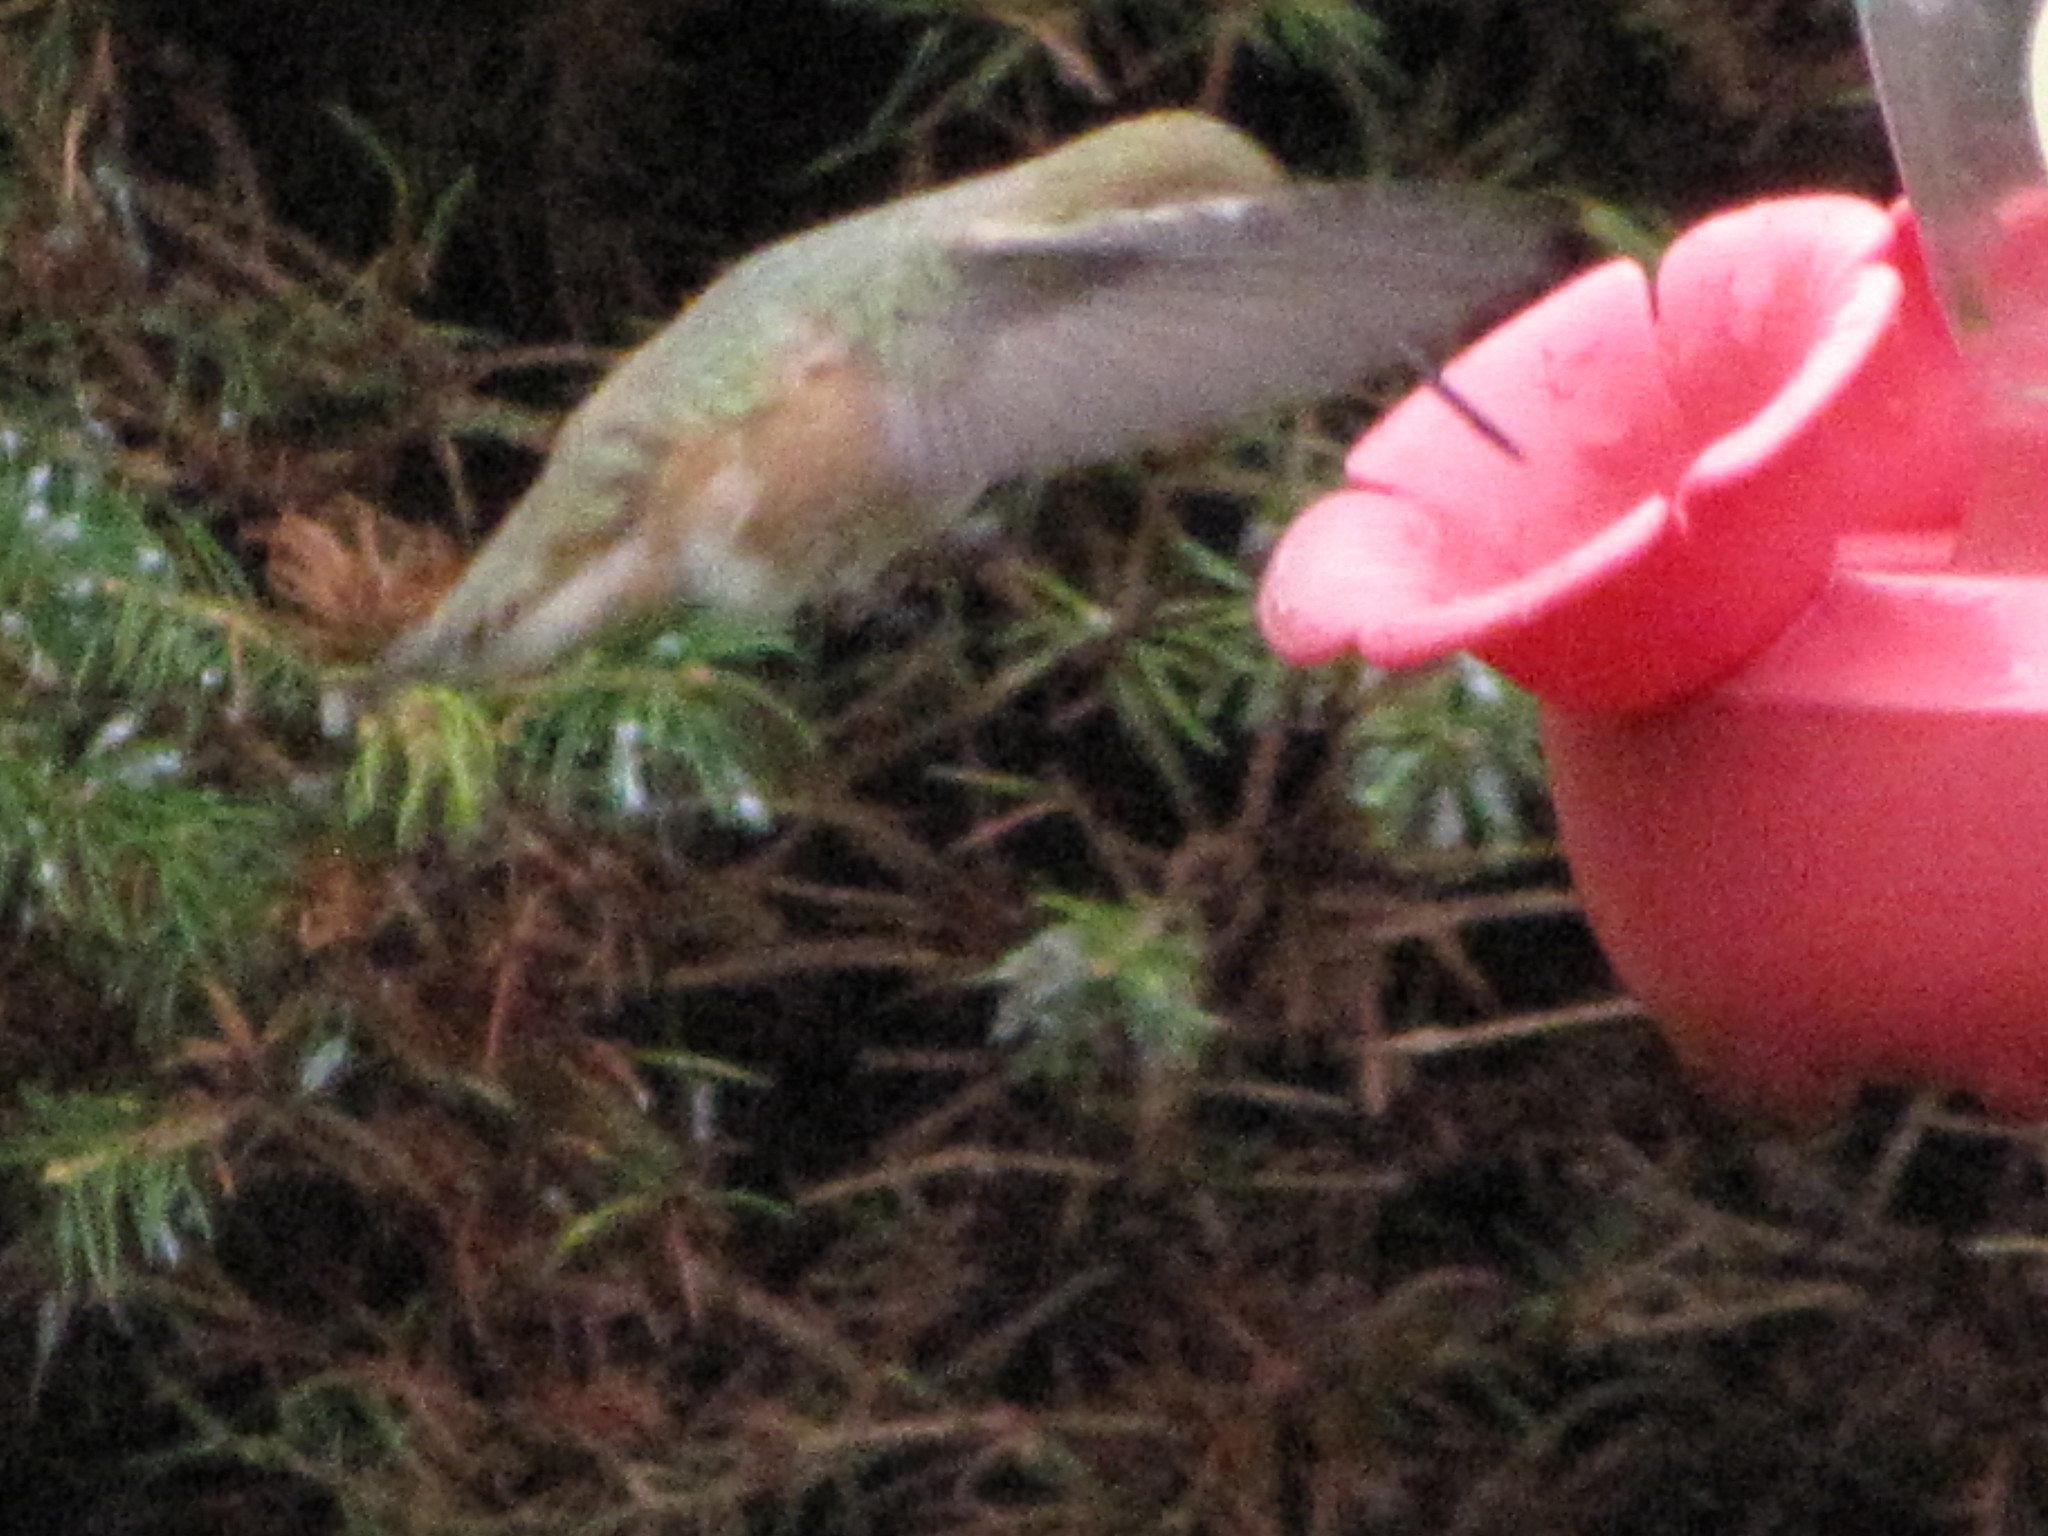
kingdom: Animalia
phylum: Chordata
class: Aves
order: Apodiformes
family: Trochilidae
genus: Selasphorus
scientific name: Selasphorus rufus
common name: Rufous hummingbird
